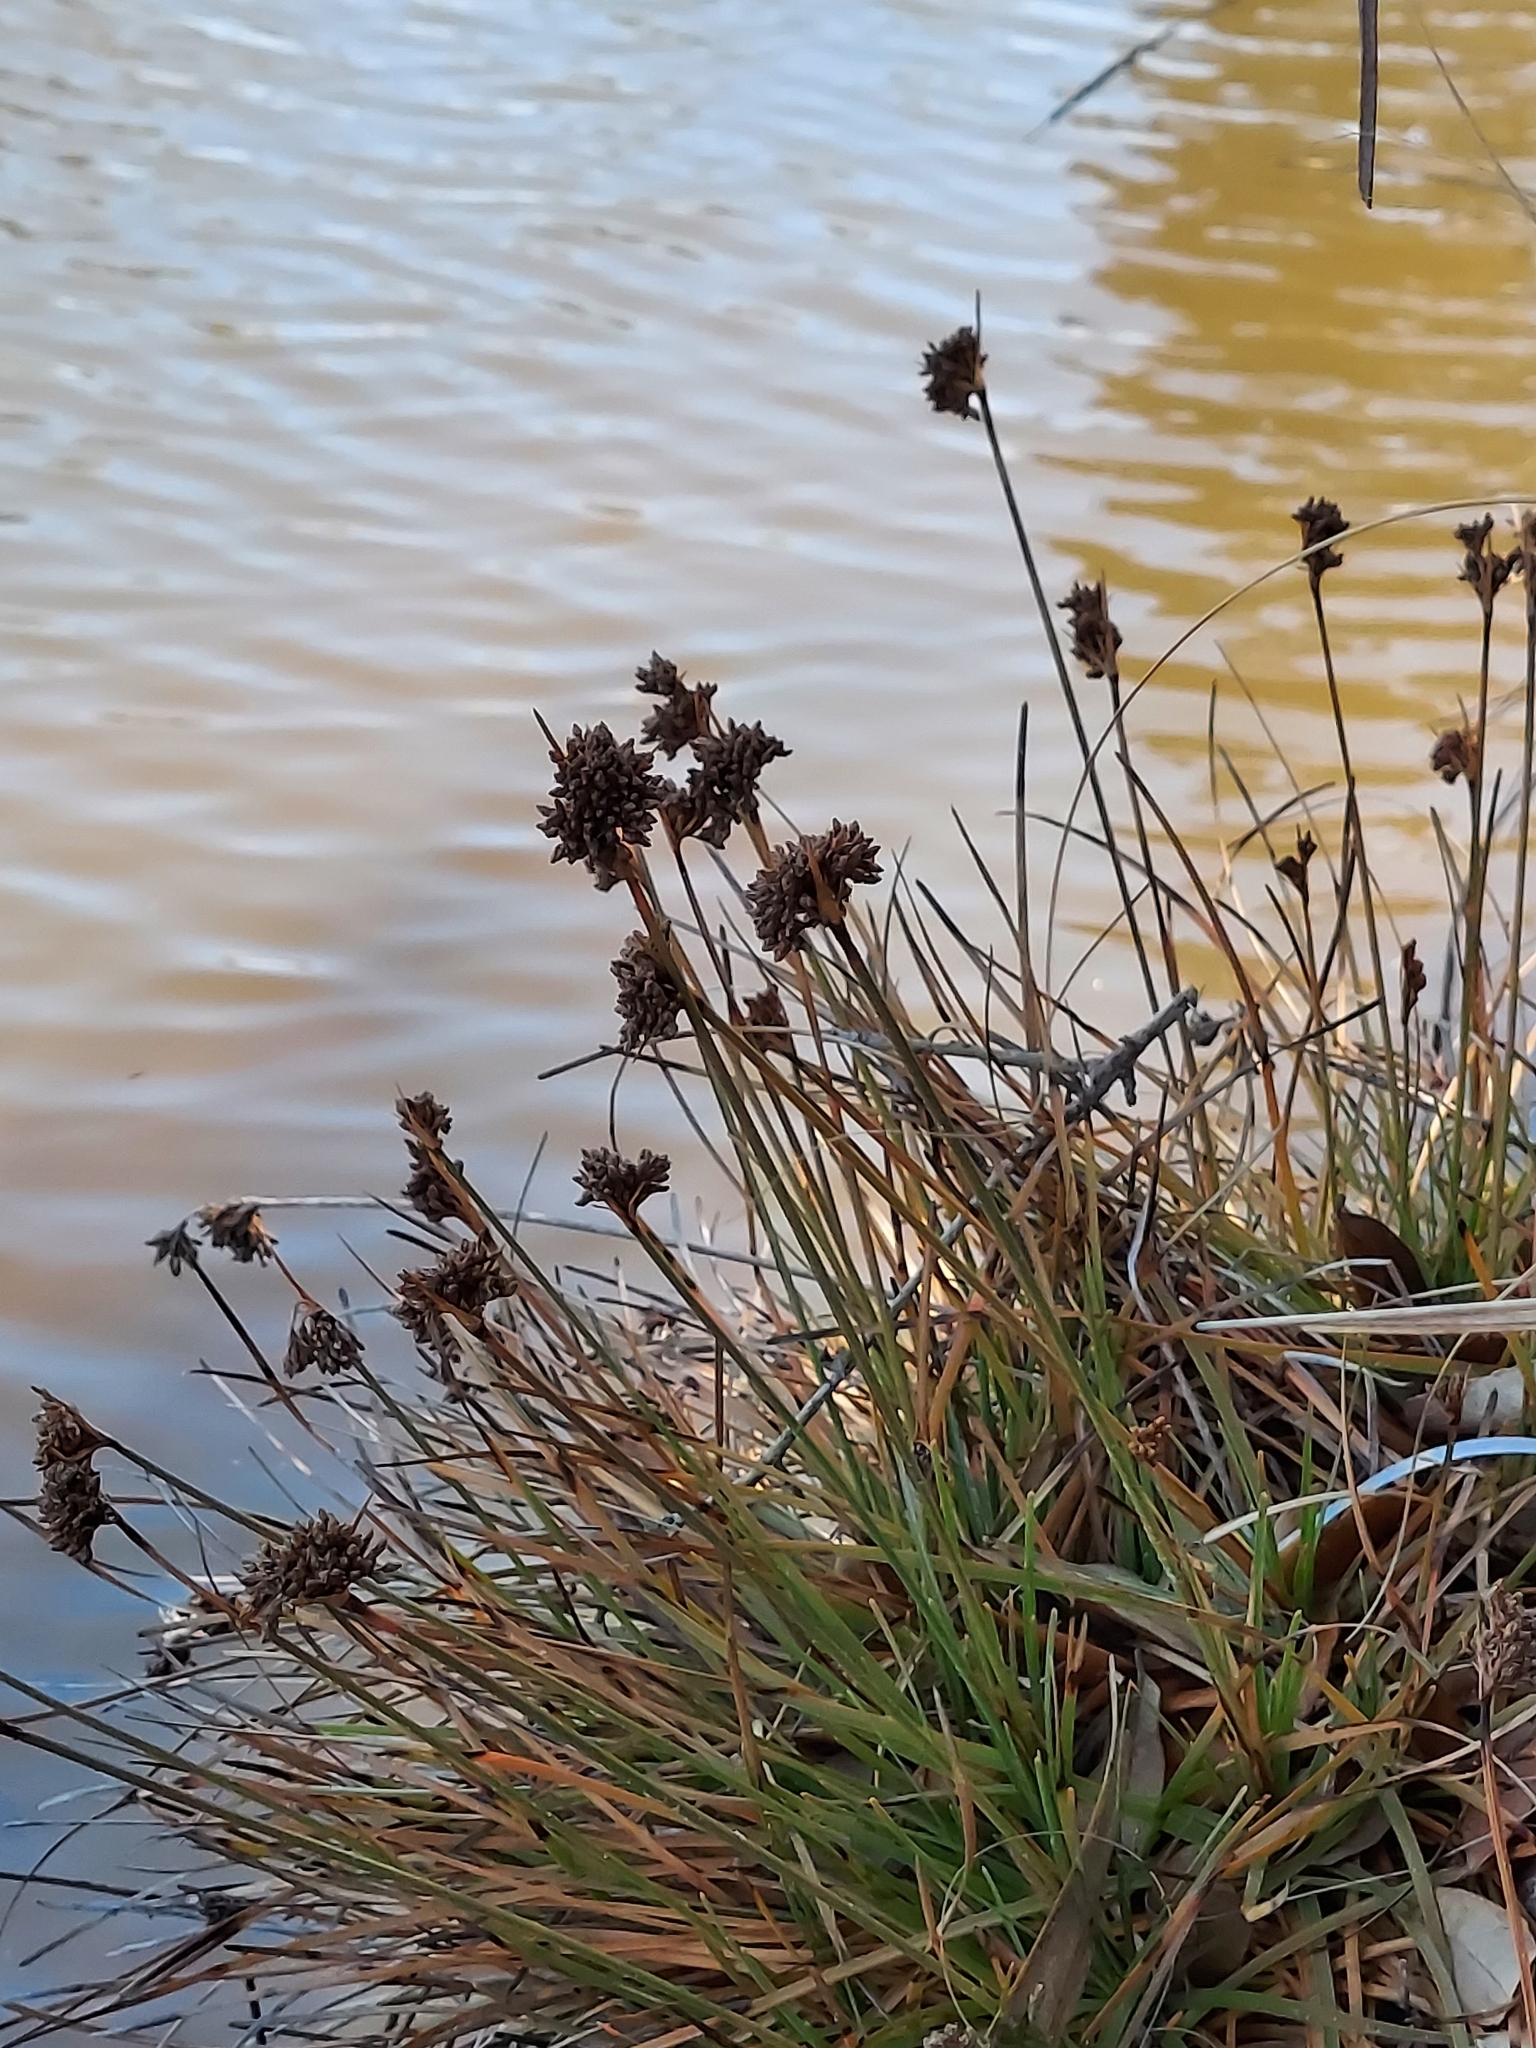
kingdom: Plantae
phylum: Tracheophyta
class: Liliopsida
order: Poales
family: Cyperaceae
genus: Fimbristylis
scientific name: Fimbristylis cymosa
